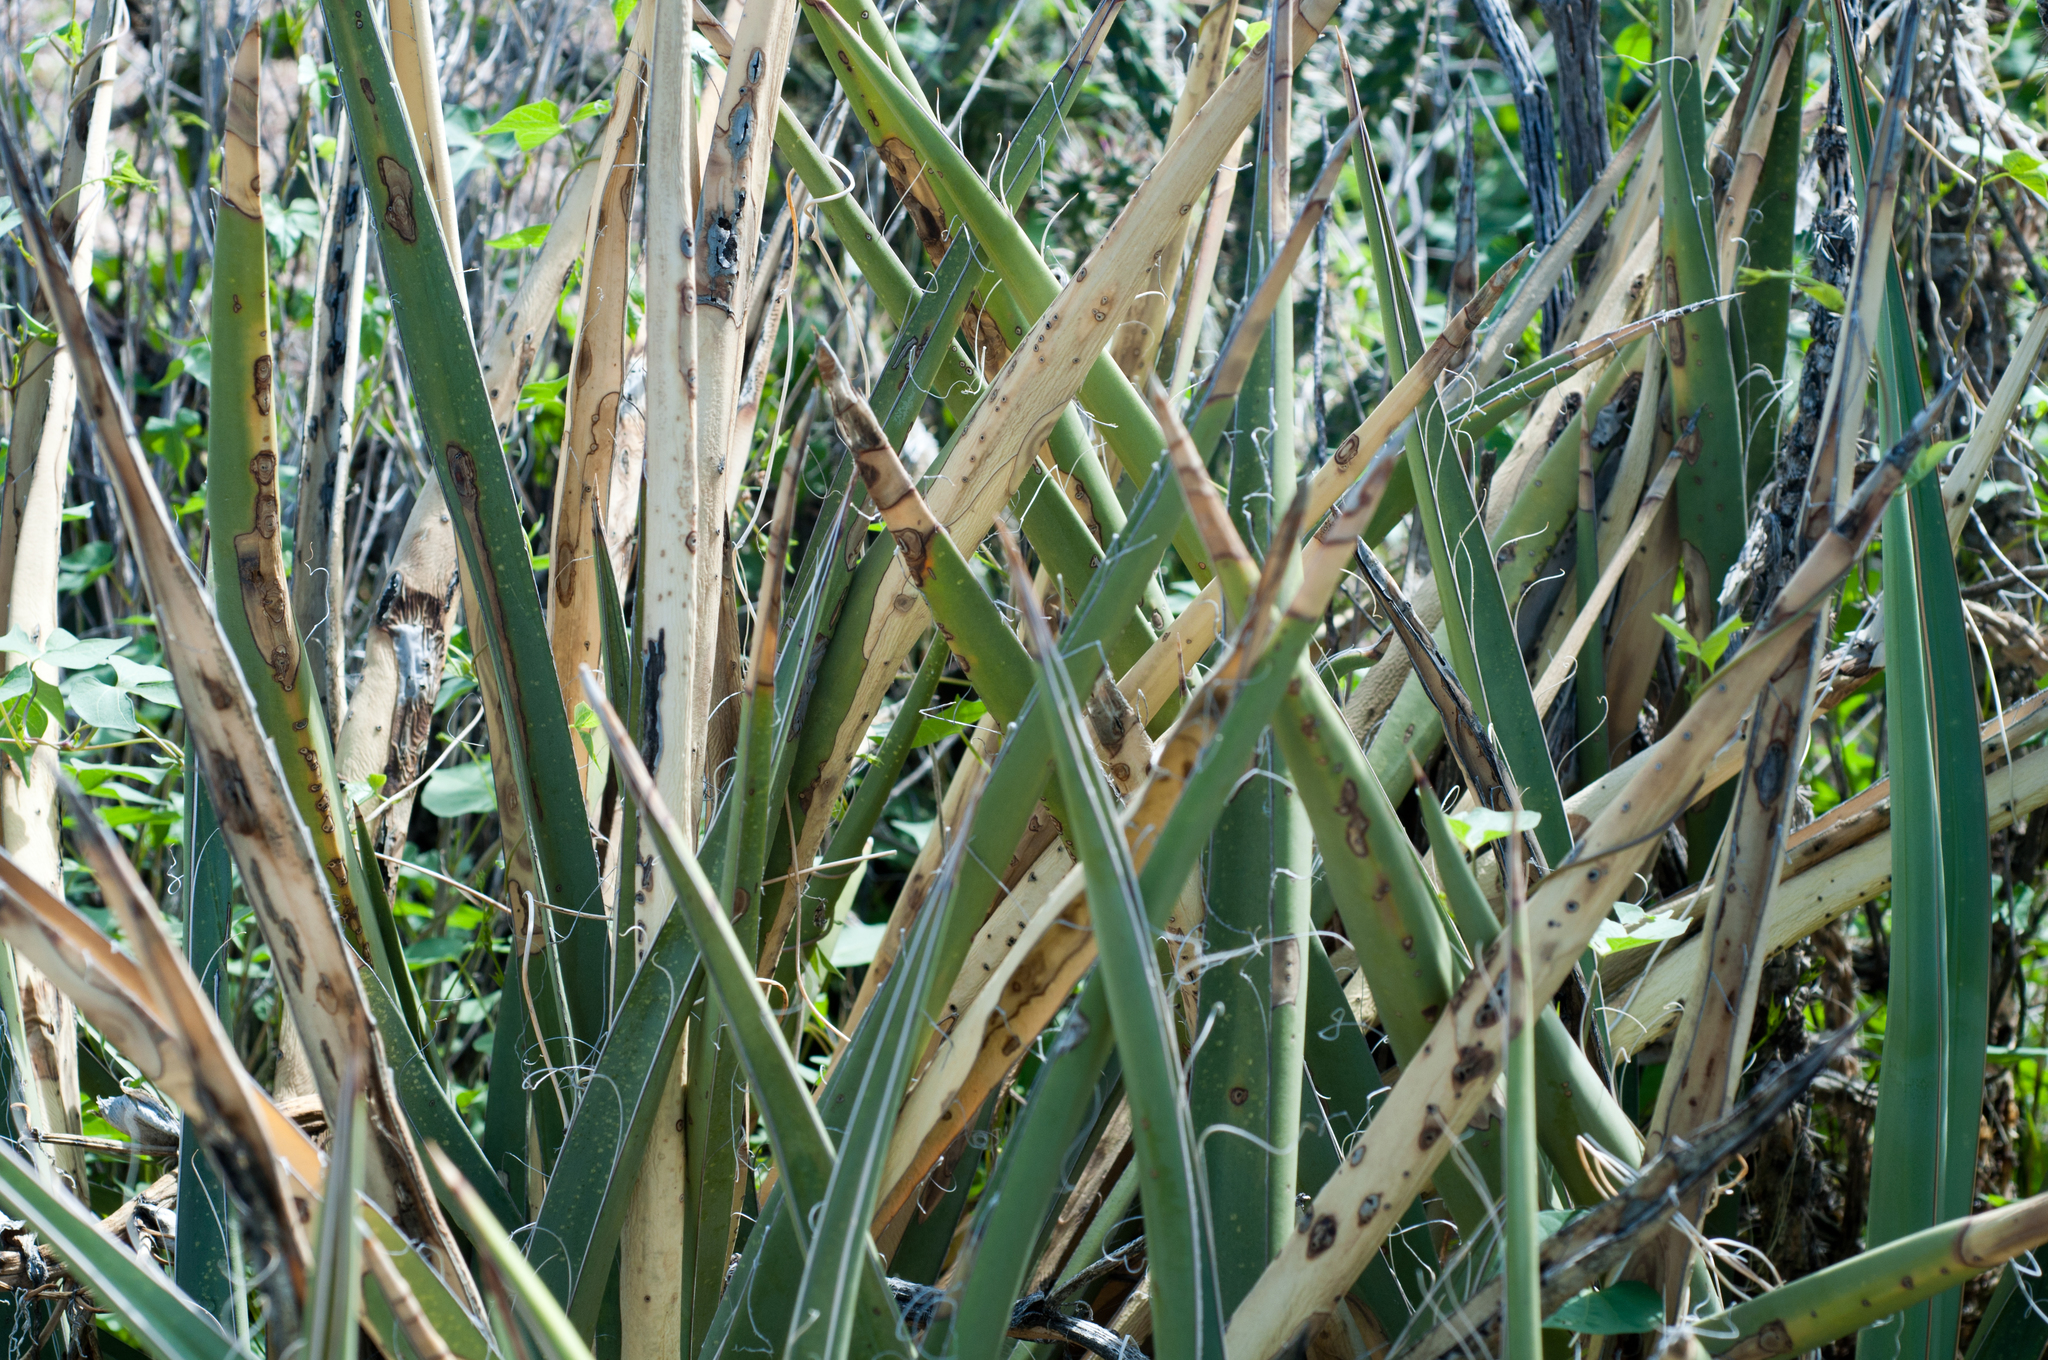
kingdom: Plantae
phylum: Tracheophyta
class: Liliopsida
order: Asparagales
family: Asparagaceae
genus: Yucca
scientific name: Yucca baccata
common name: Banana yucca
